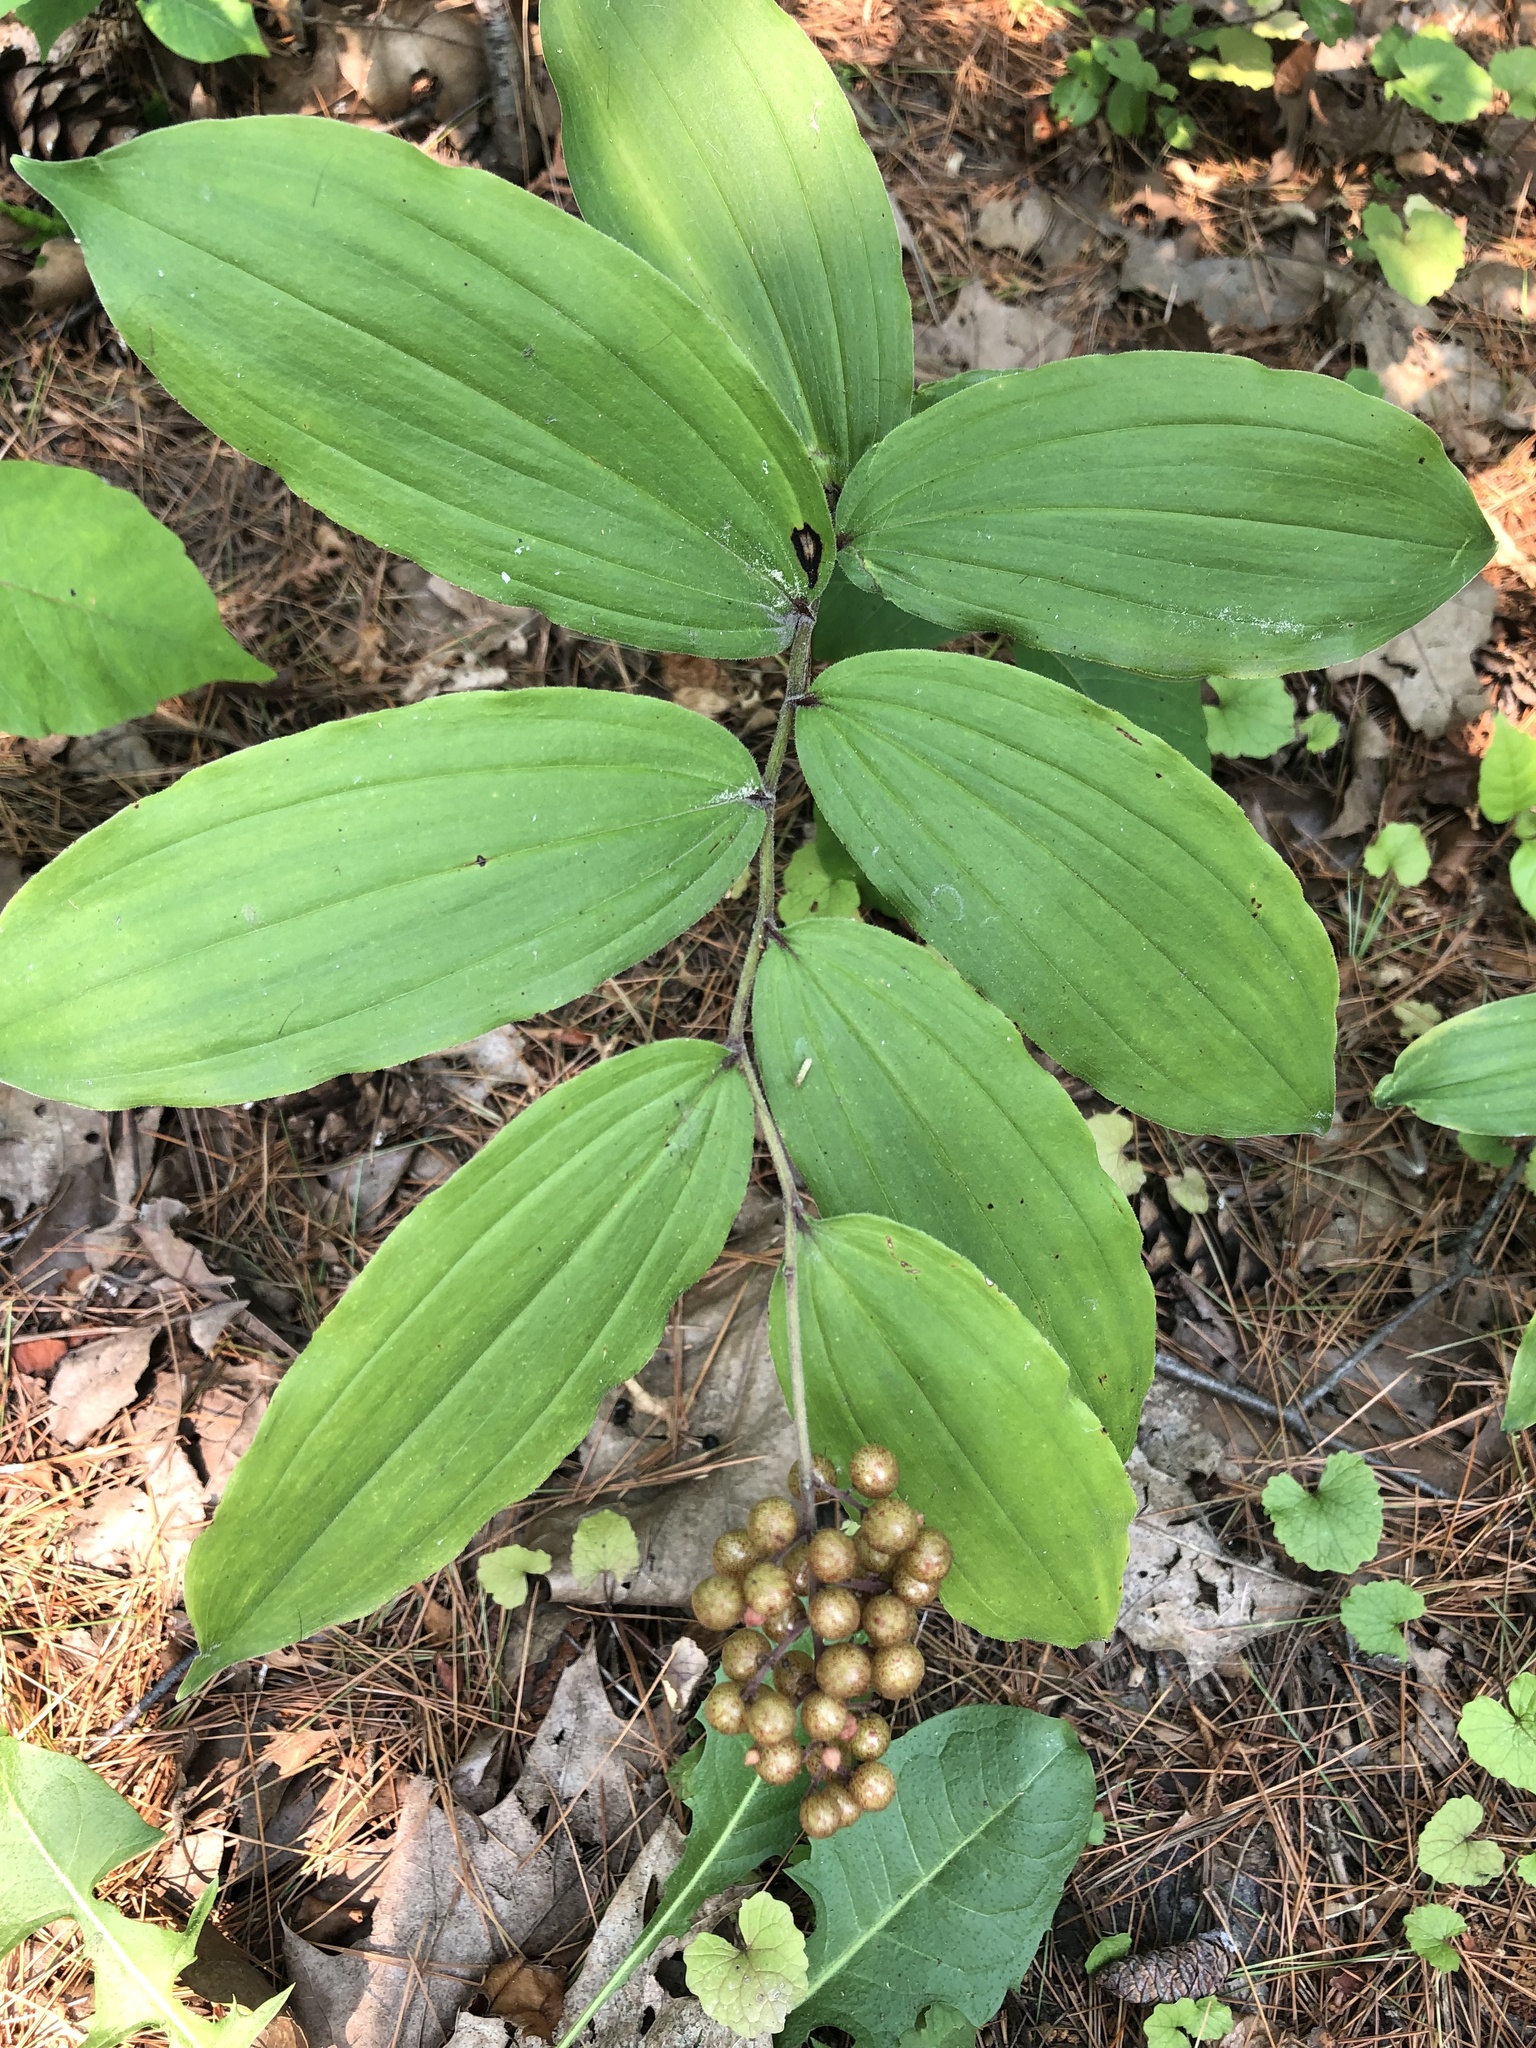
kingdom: Plantae
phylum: Tracheophyta
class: Liliopsida
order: Asparagales
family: Asparagaceae
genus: Maianthemum
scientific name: Maianthemum racemosum
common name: False spikenard
